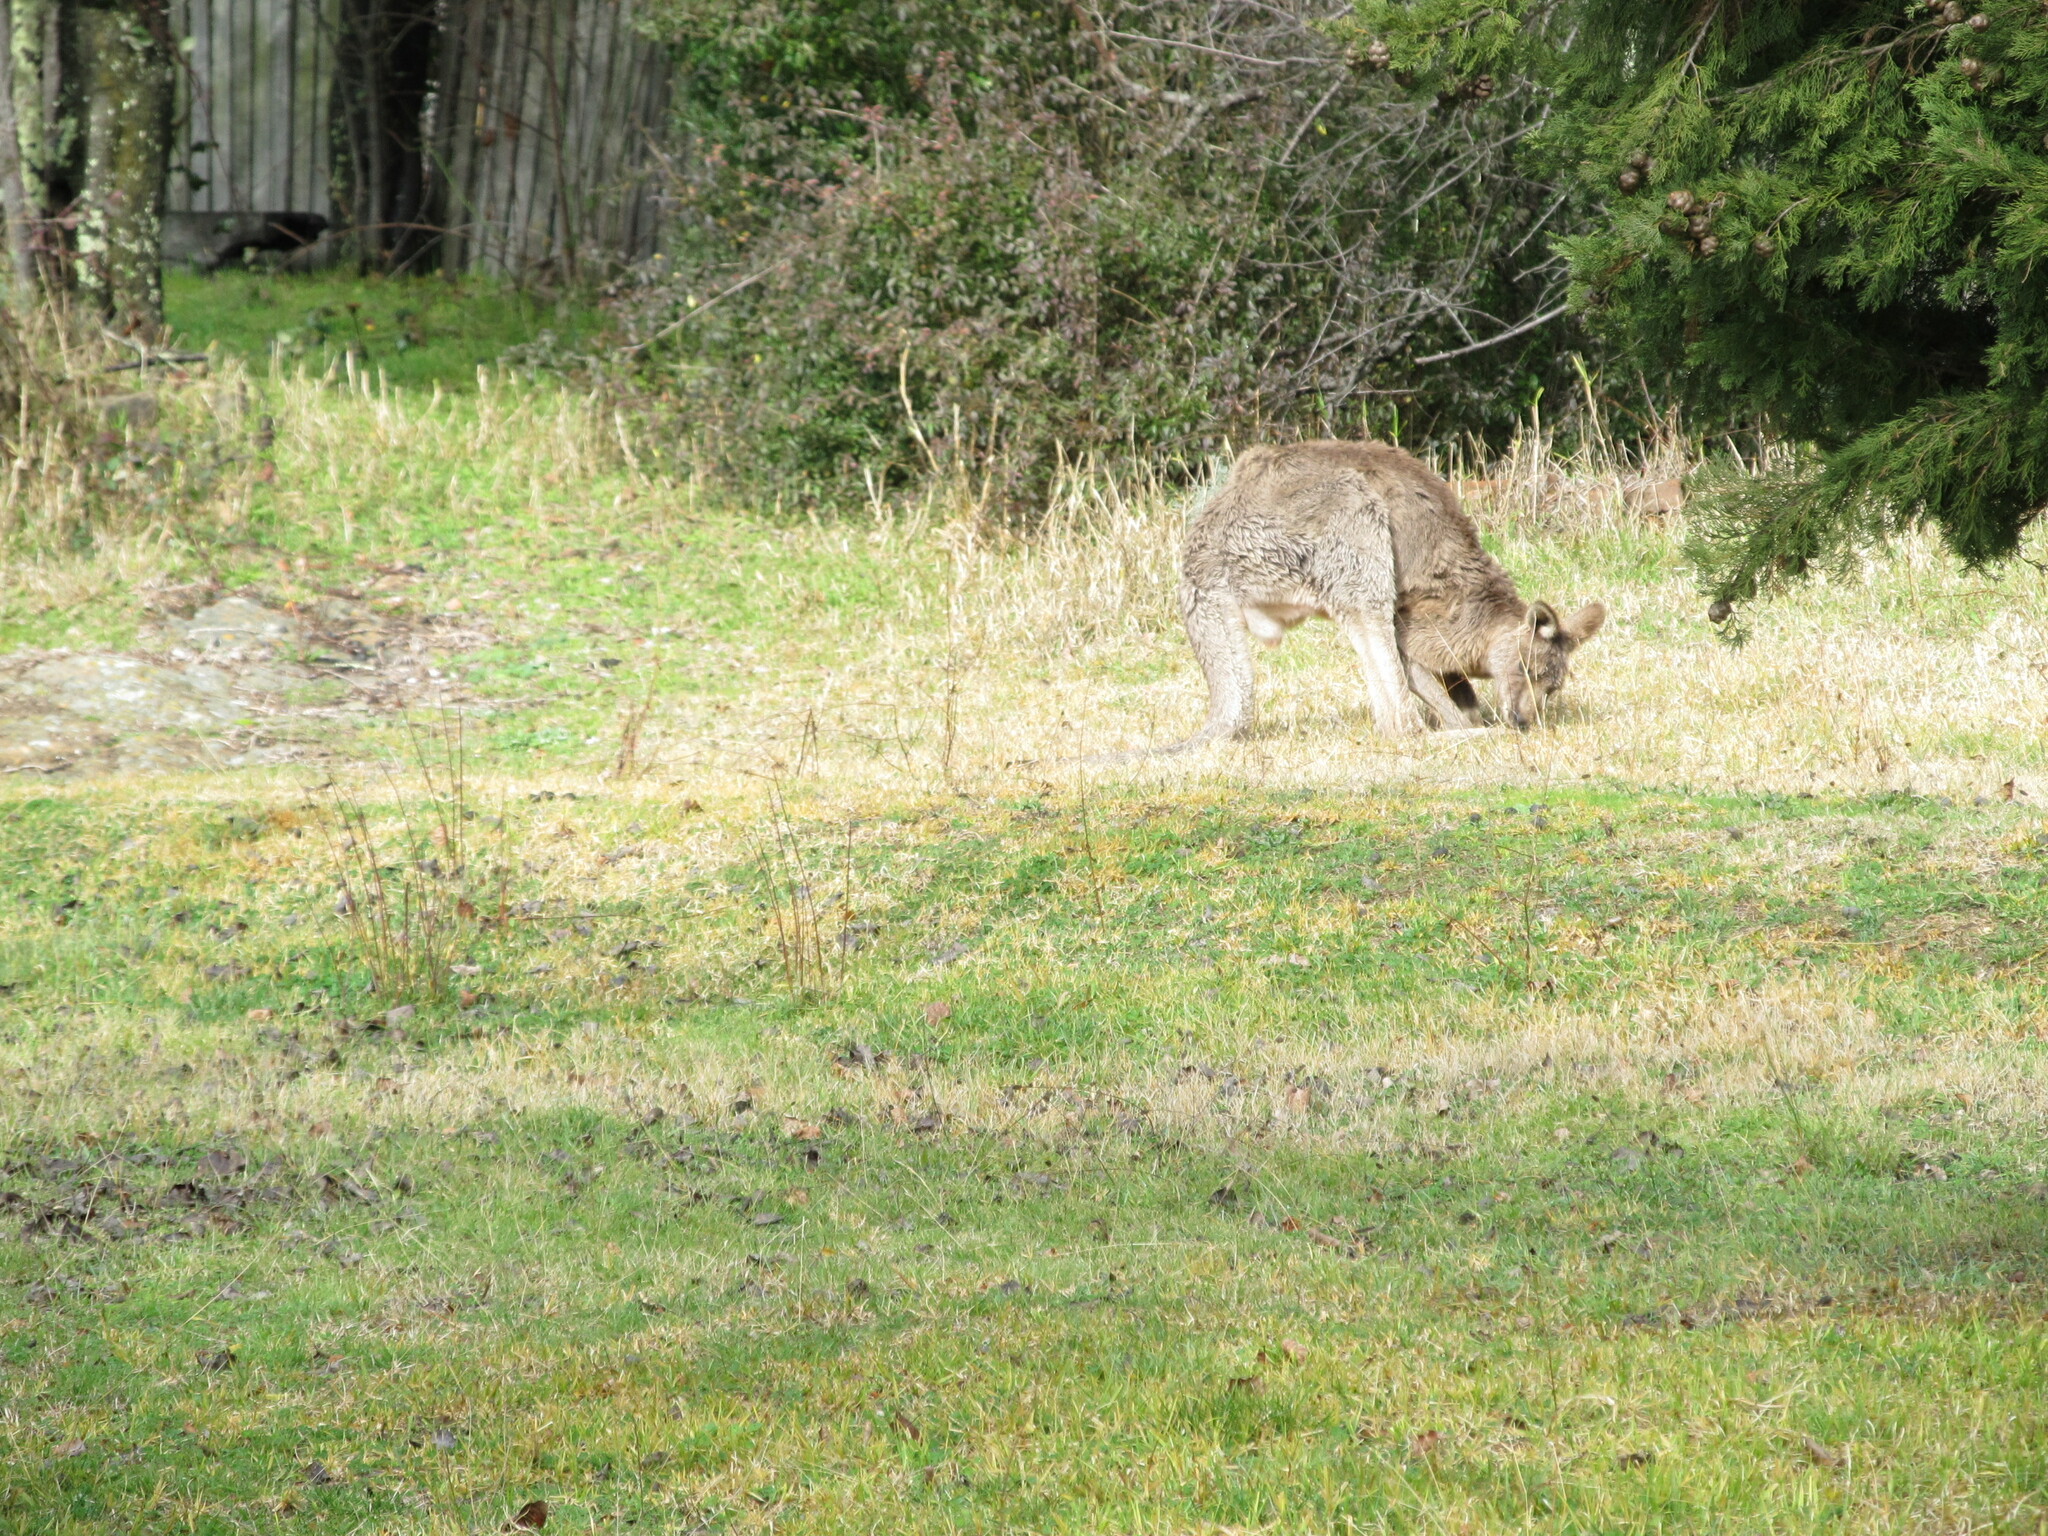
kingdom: Animalia
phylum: Chordata
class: Mammalia
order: Diprotodontia
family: Macropodidae
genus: Macropus
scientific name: Macropus giganteus
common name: Eastern grey kangaroo
